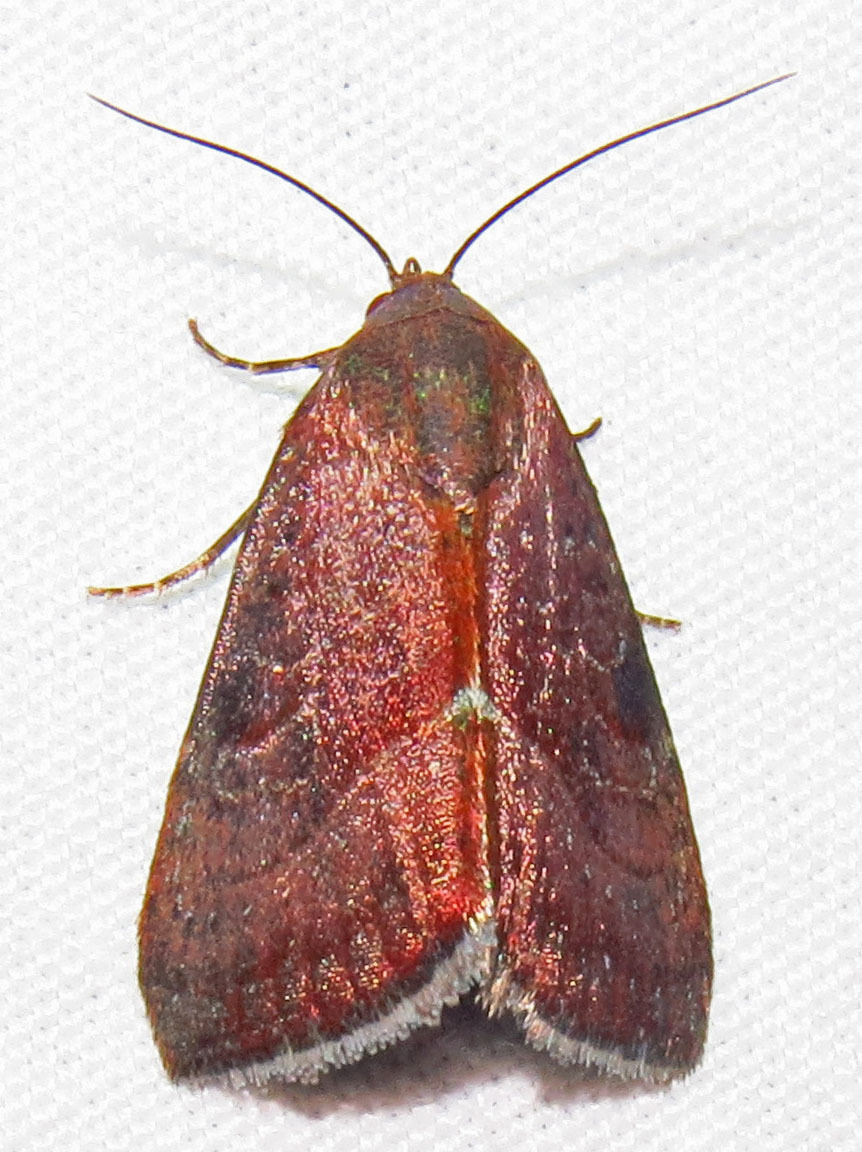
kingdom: Animalia
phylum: Arthropoda
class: Insecta
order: Lepidoptera
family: Noctuidae
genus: Galgula
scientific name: Galgula partita
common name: Wedgeling
